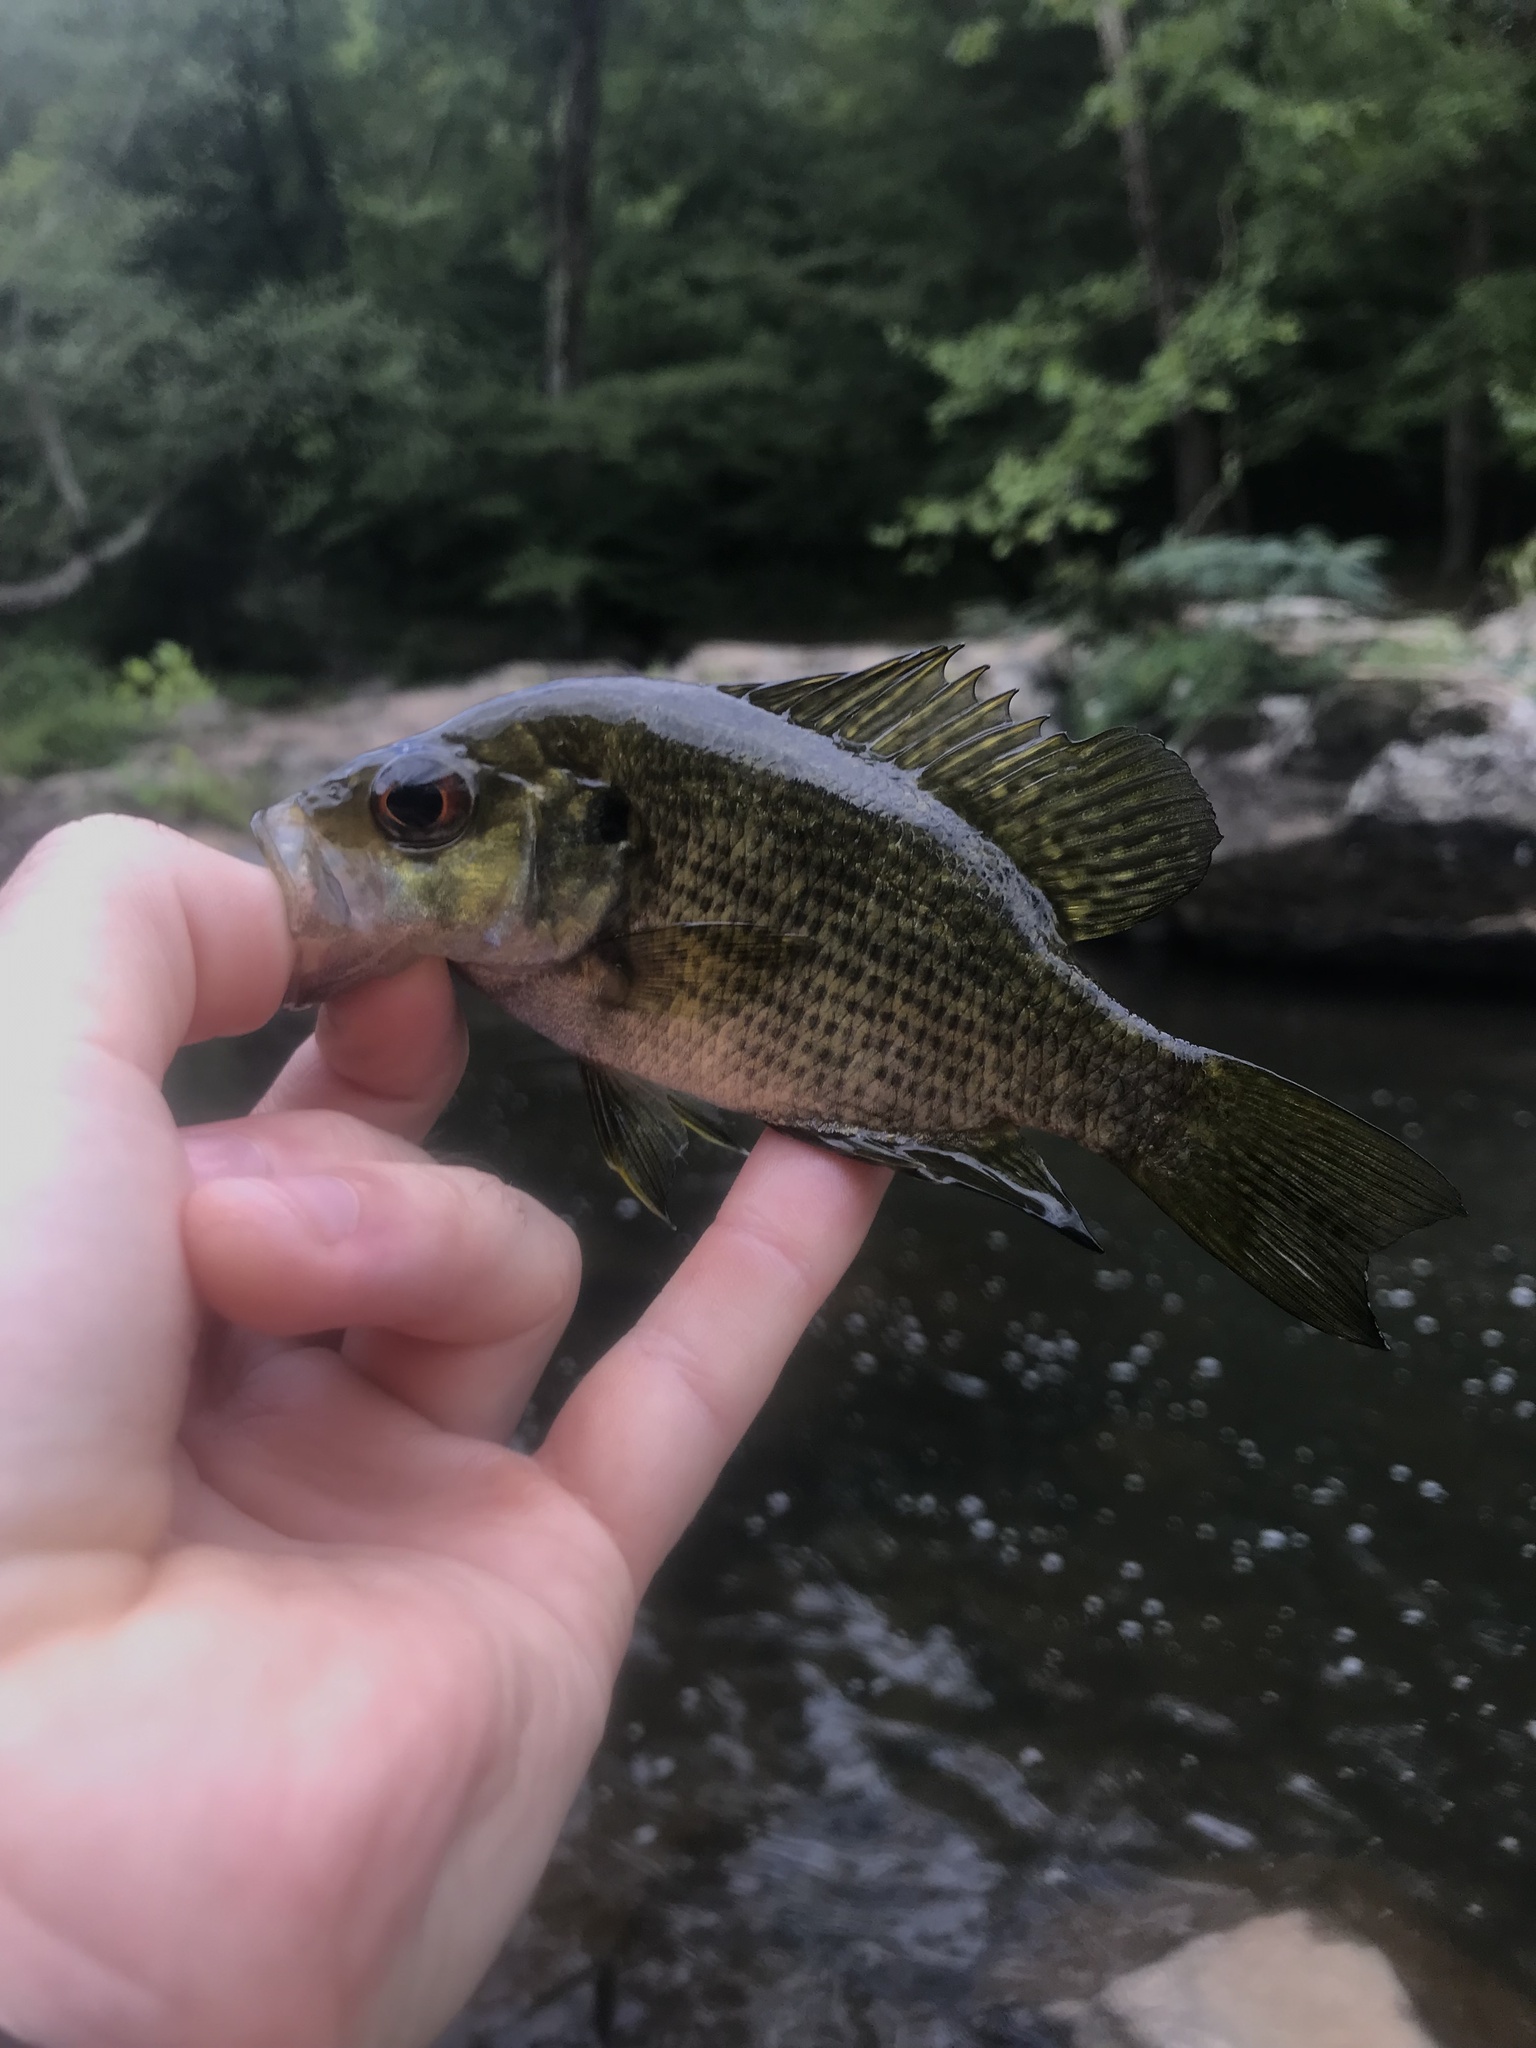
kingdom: Animalia
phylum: Chordata
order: Perciformes
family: Centrarchidae
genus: Ambloplites
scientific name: Ambloplites cavifrons
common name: Roanoke bass
